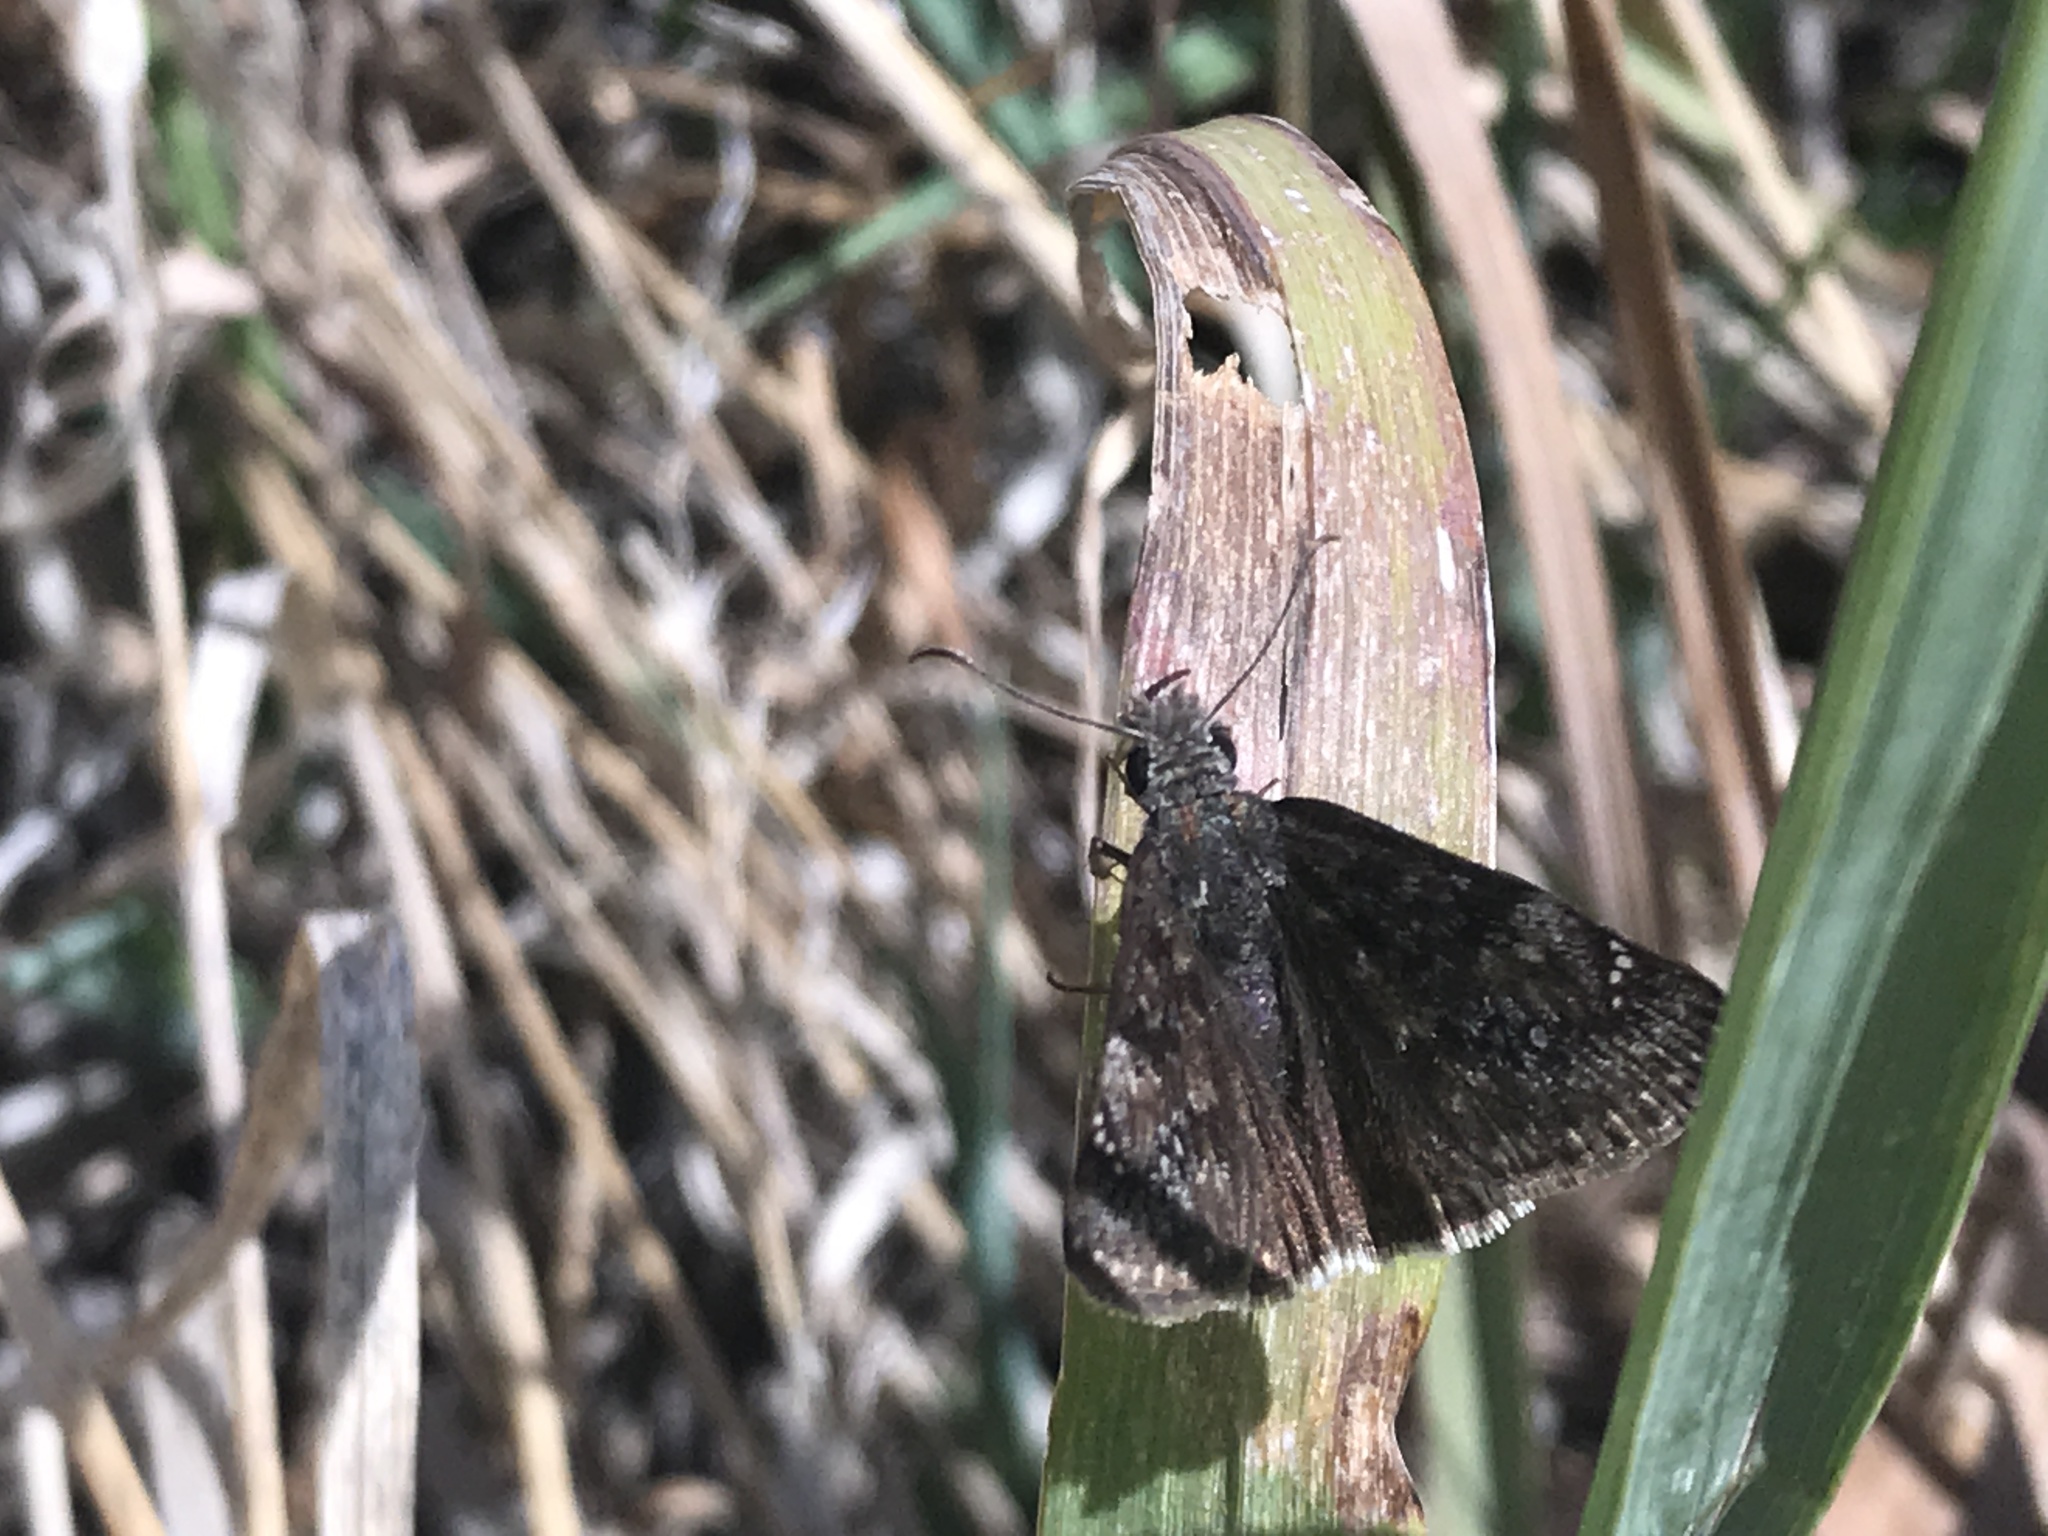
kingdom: Animalia
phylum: Arthropoda
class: Insecta
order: Lepidoptera
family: Hesperiidae
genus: Erynnis
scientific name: Erynnis afranius
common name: Afranius duskywing
